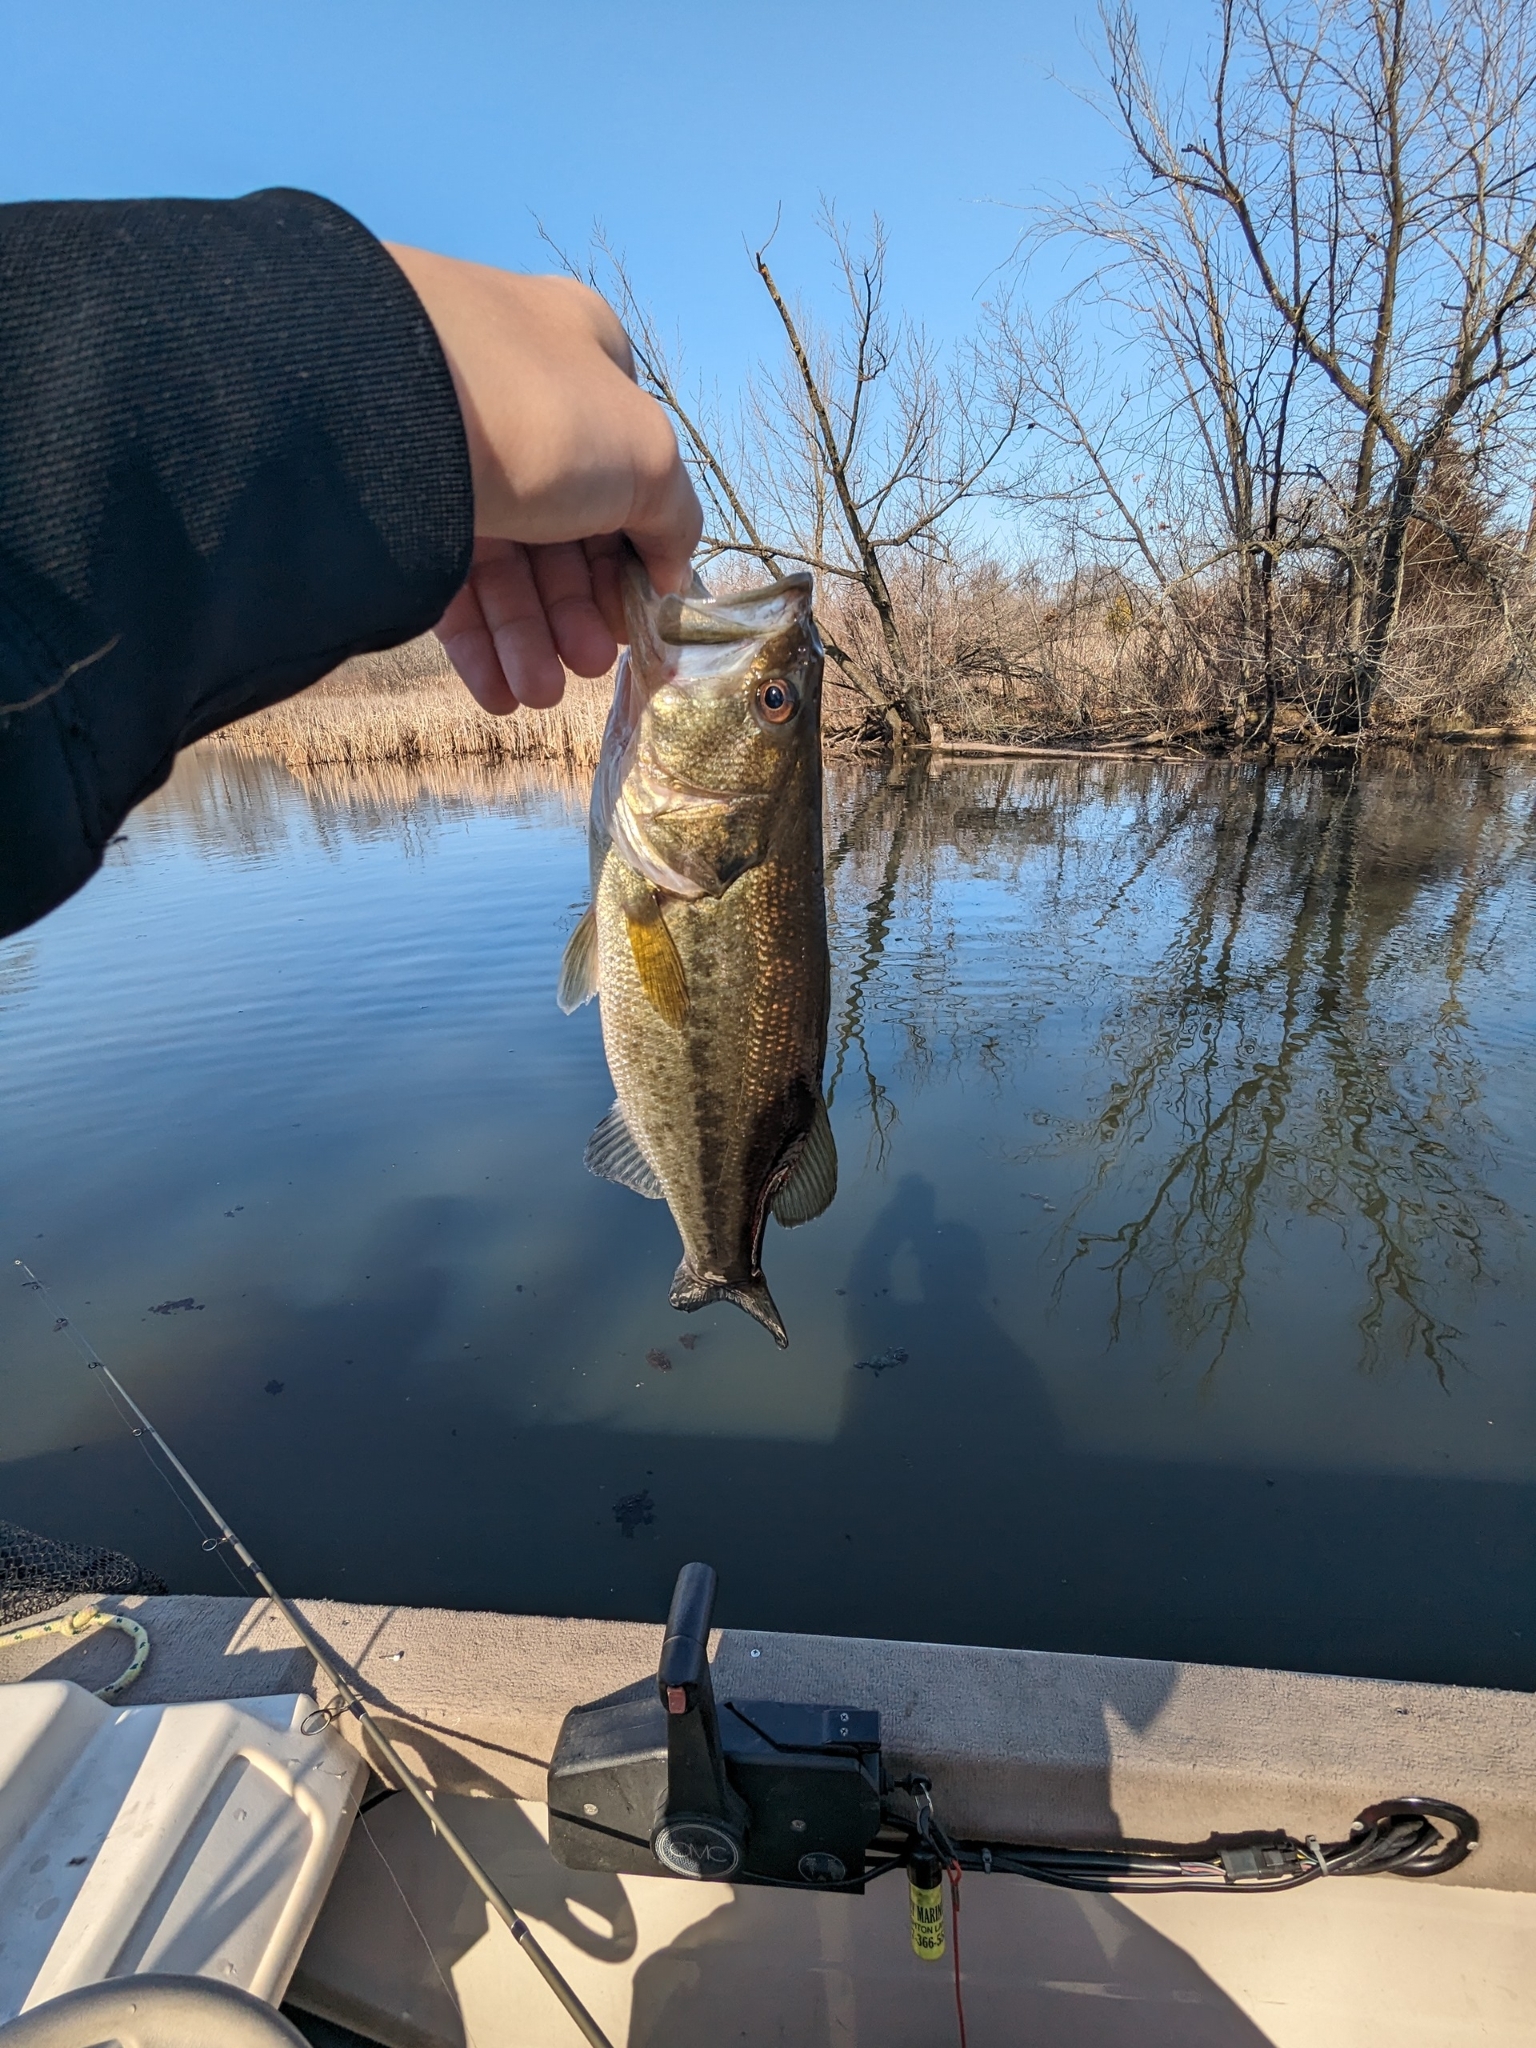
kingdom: Animalia
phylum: Chordata
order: Perciformes
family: Centrarchidae
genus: Micropterus
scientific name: Micropterus
